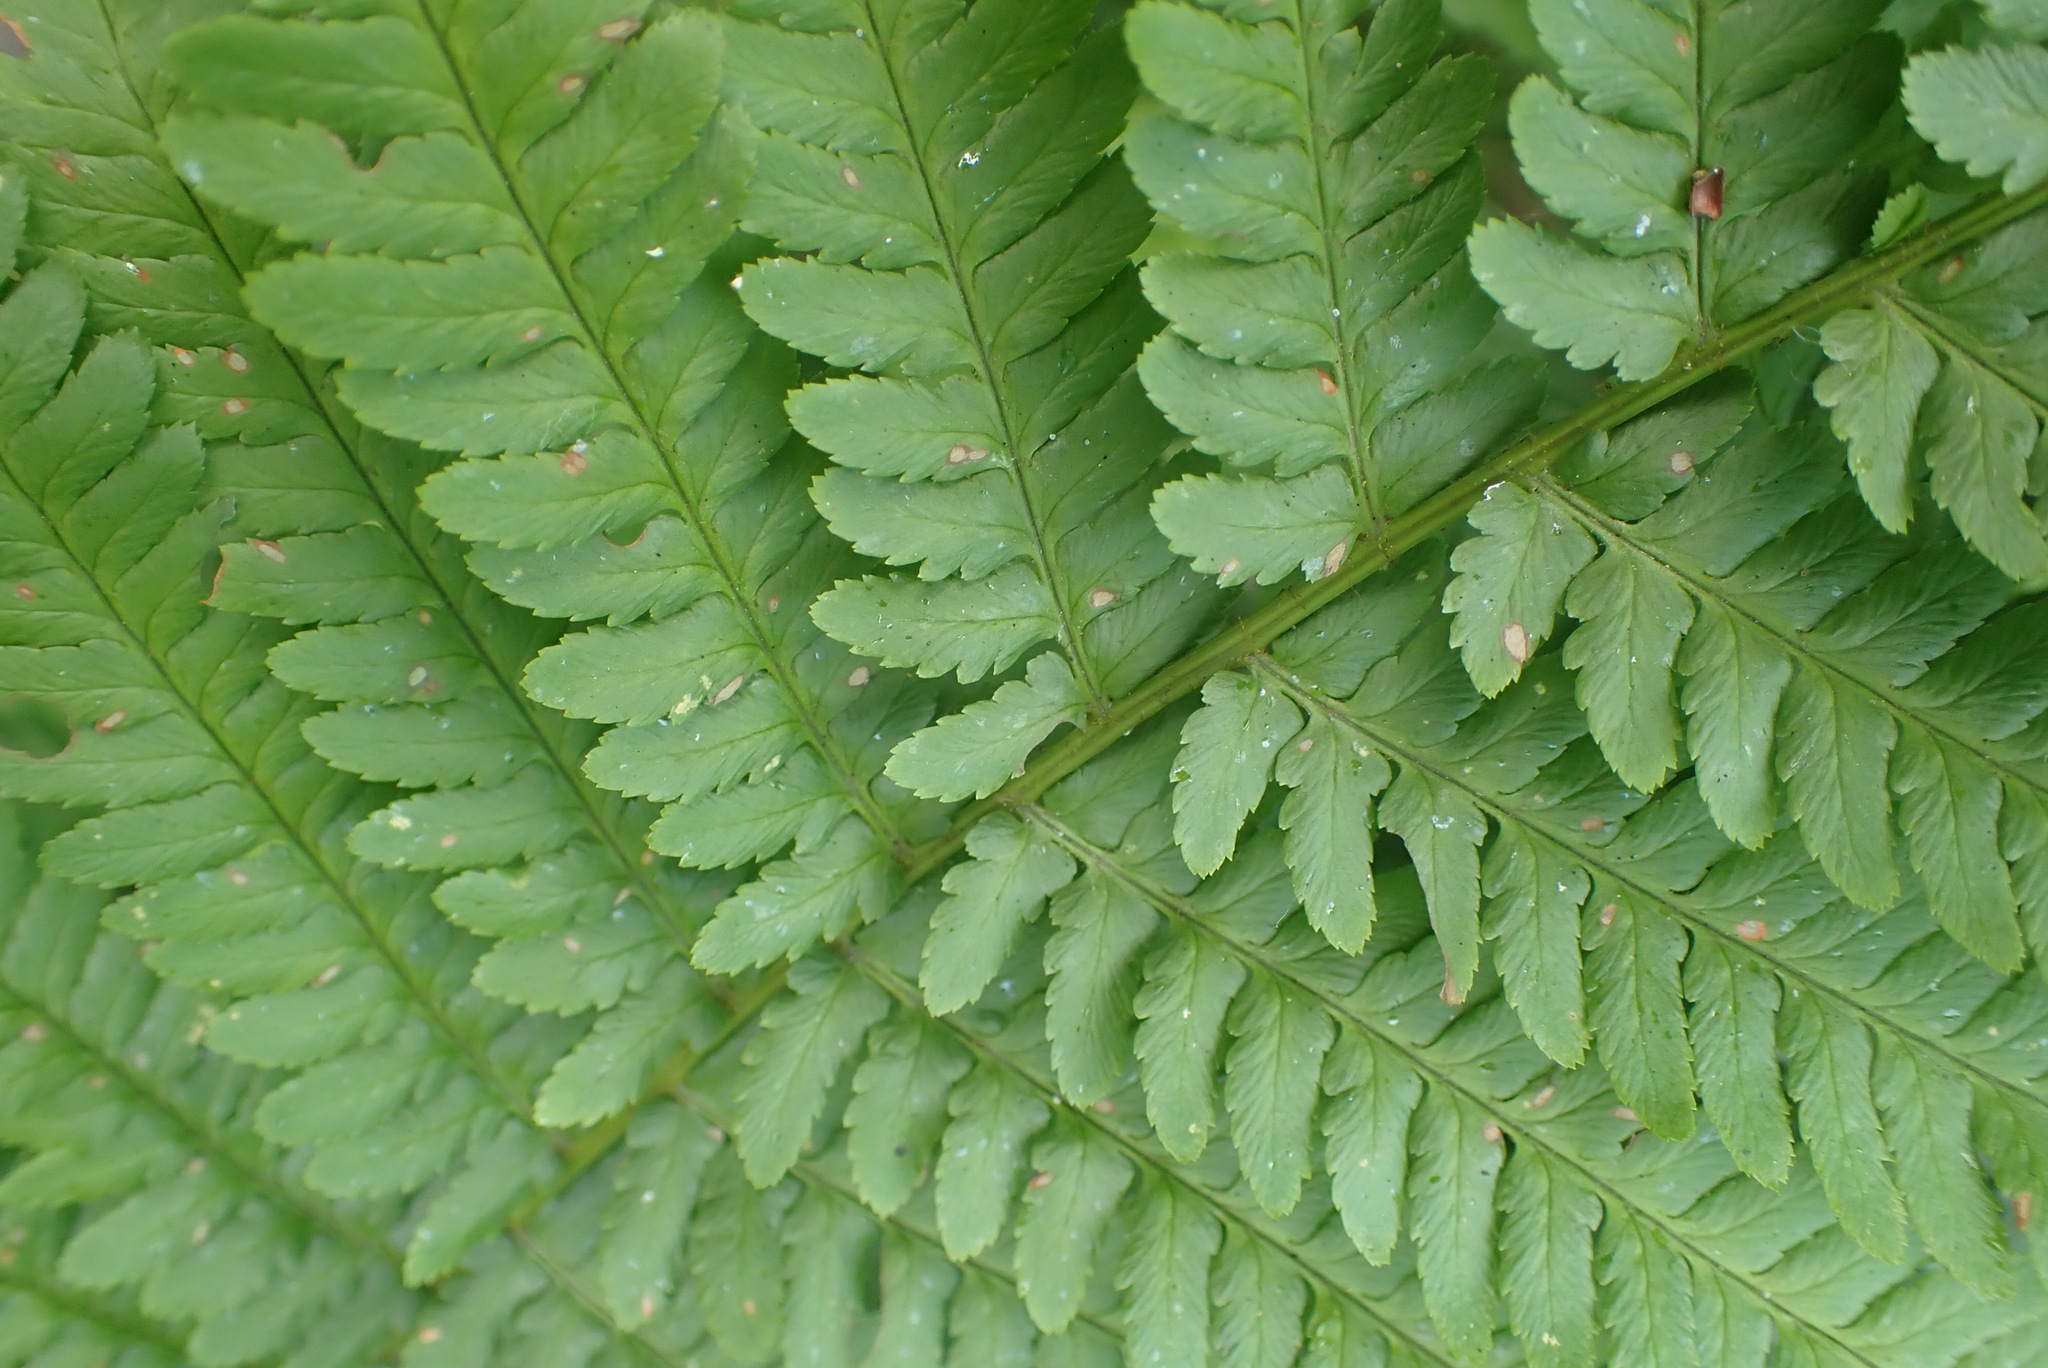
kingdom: Plantae
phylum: Tracheophyta
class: Polypodiopsida
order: Polypodiales
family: Dryopteridaceae
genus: Dryopteris
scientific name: Dryopteris filix-mas
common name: Male fern
